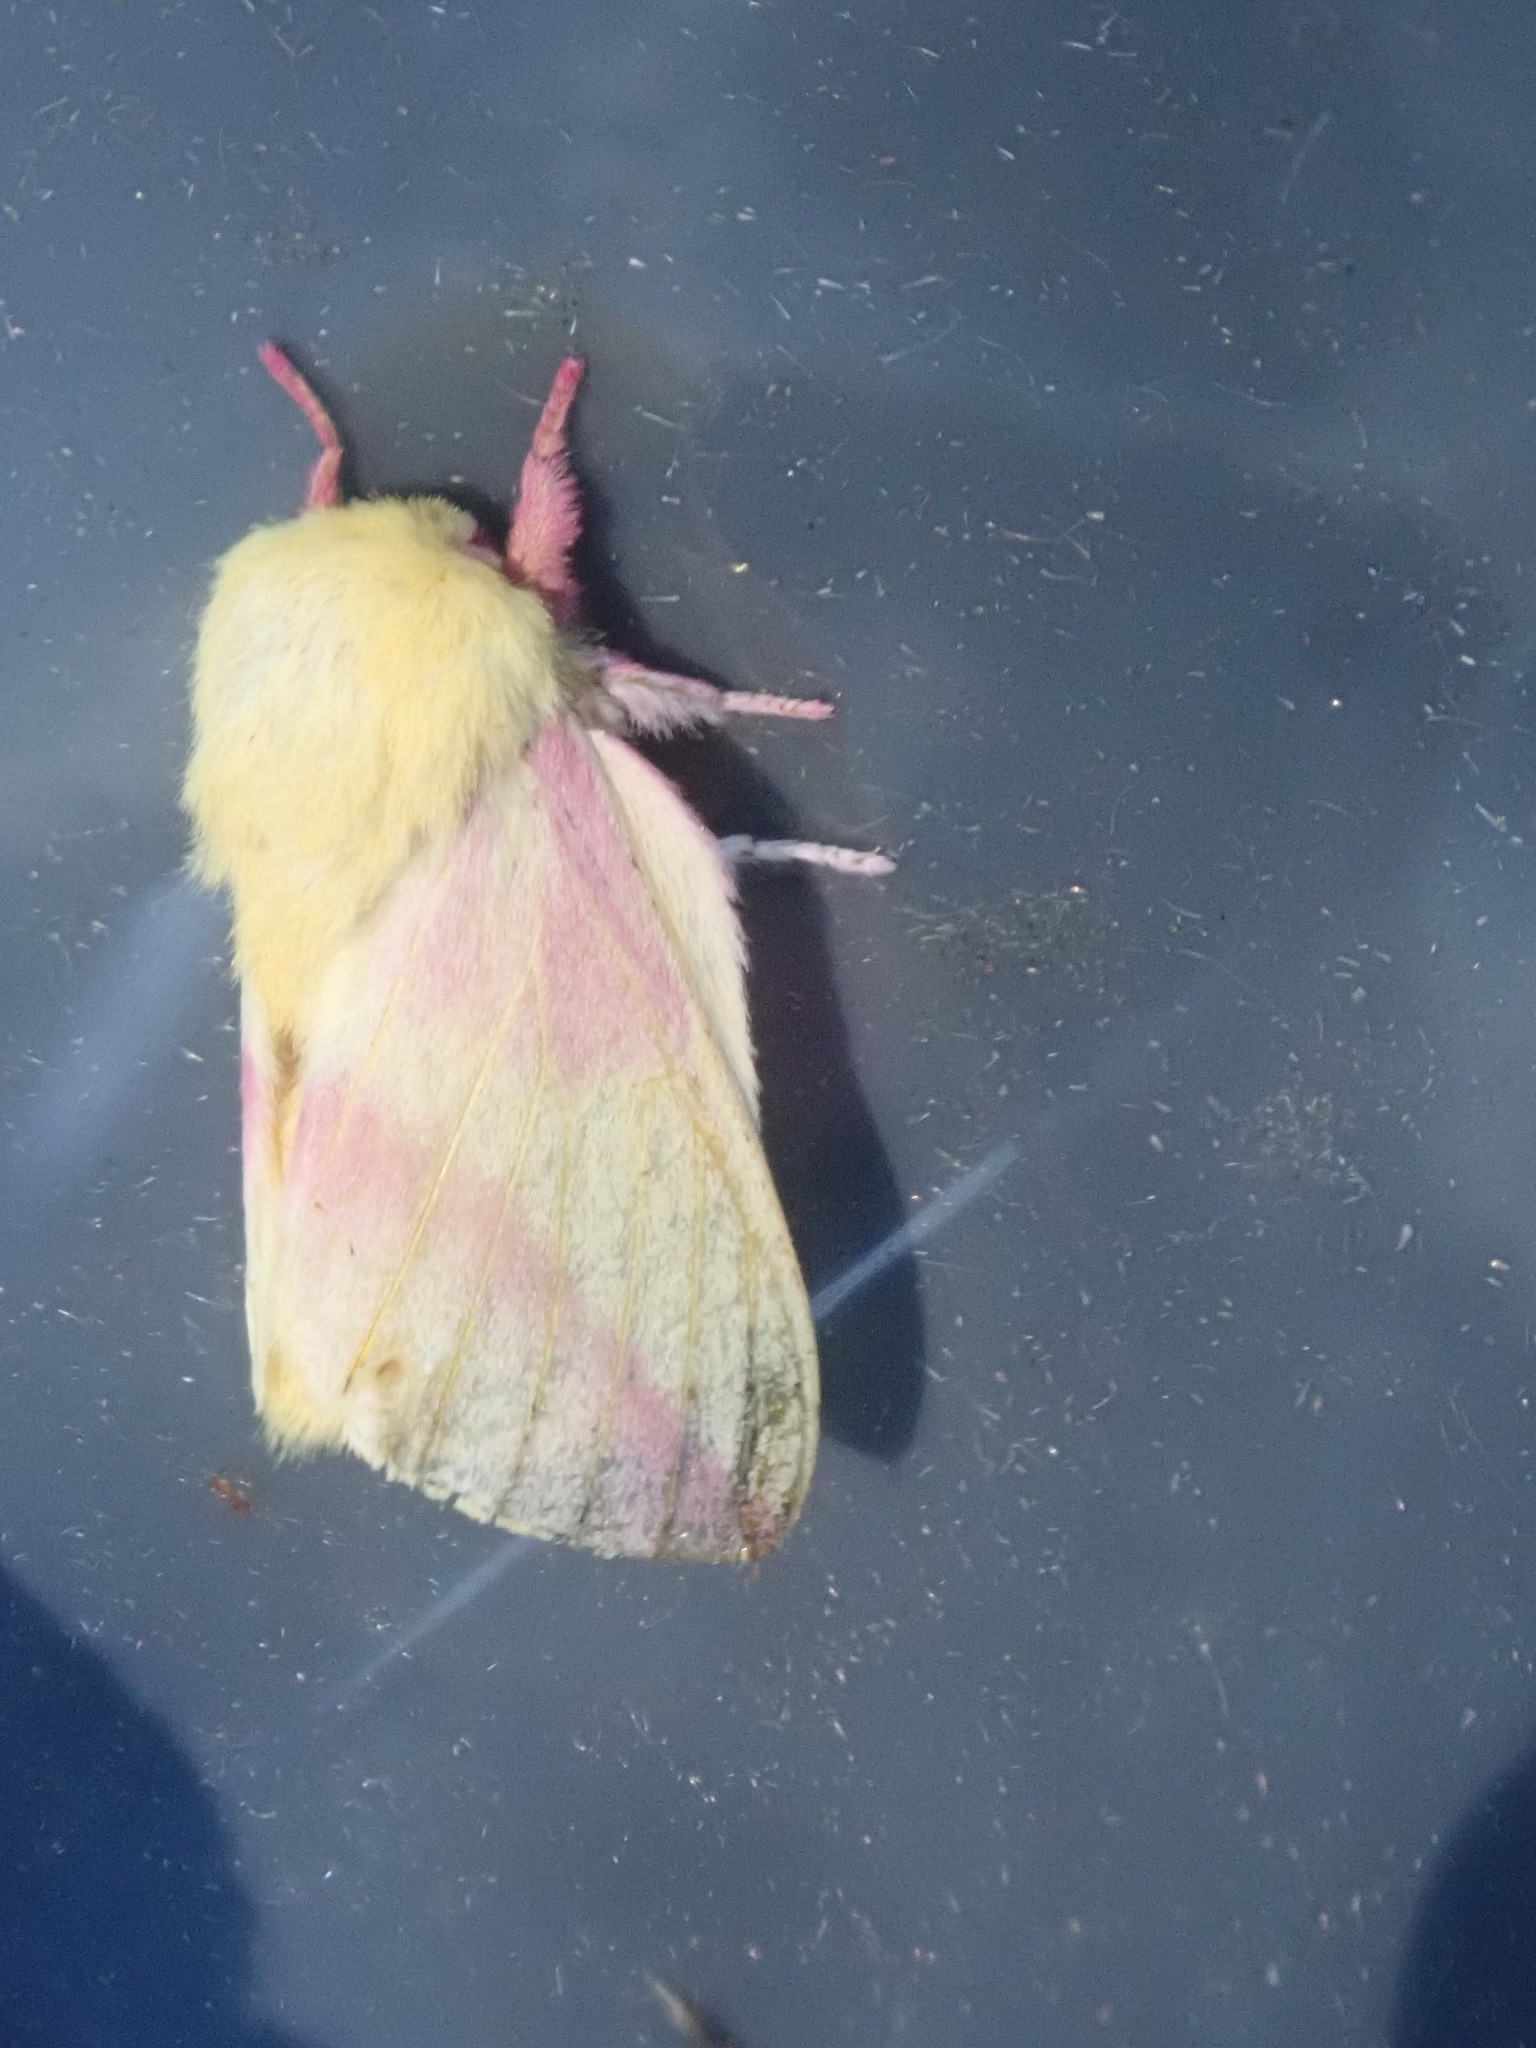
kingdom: Animalia
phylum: Arthropoda
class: Insecta
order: Lepidoptera
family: Saturniidae
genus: Dryocampa
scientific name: Dryocampa rubicunda
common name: Rosy maple moth
